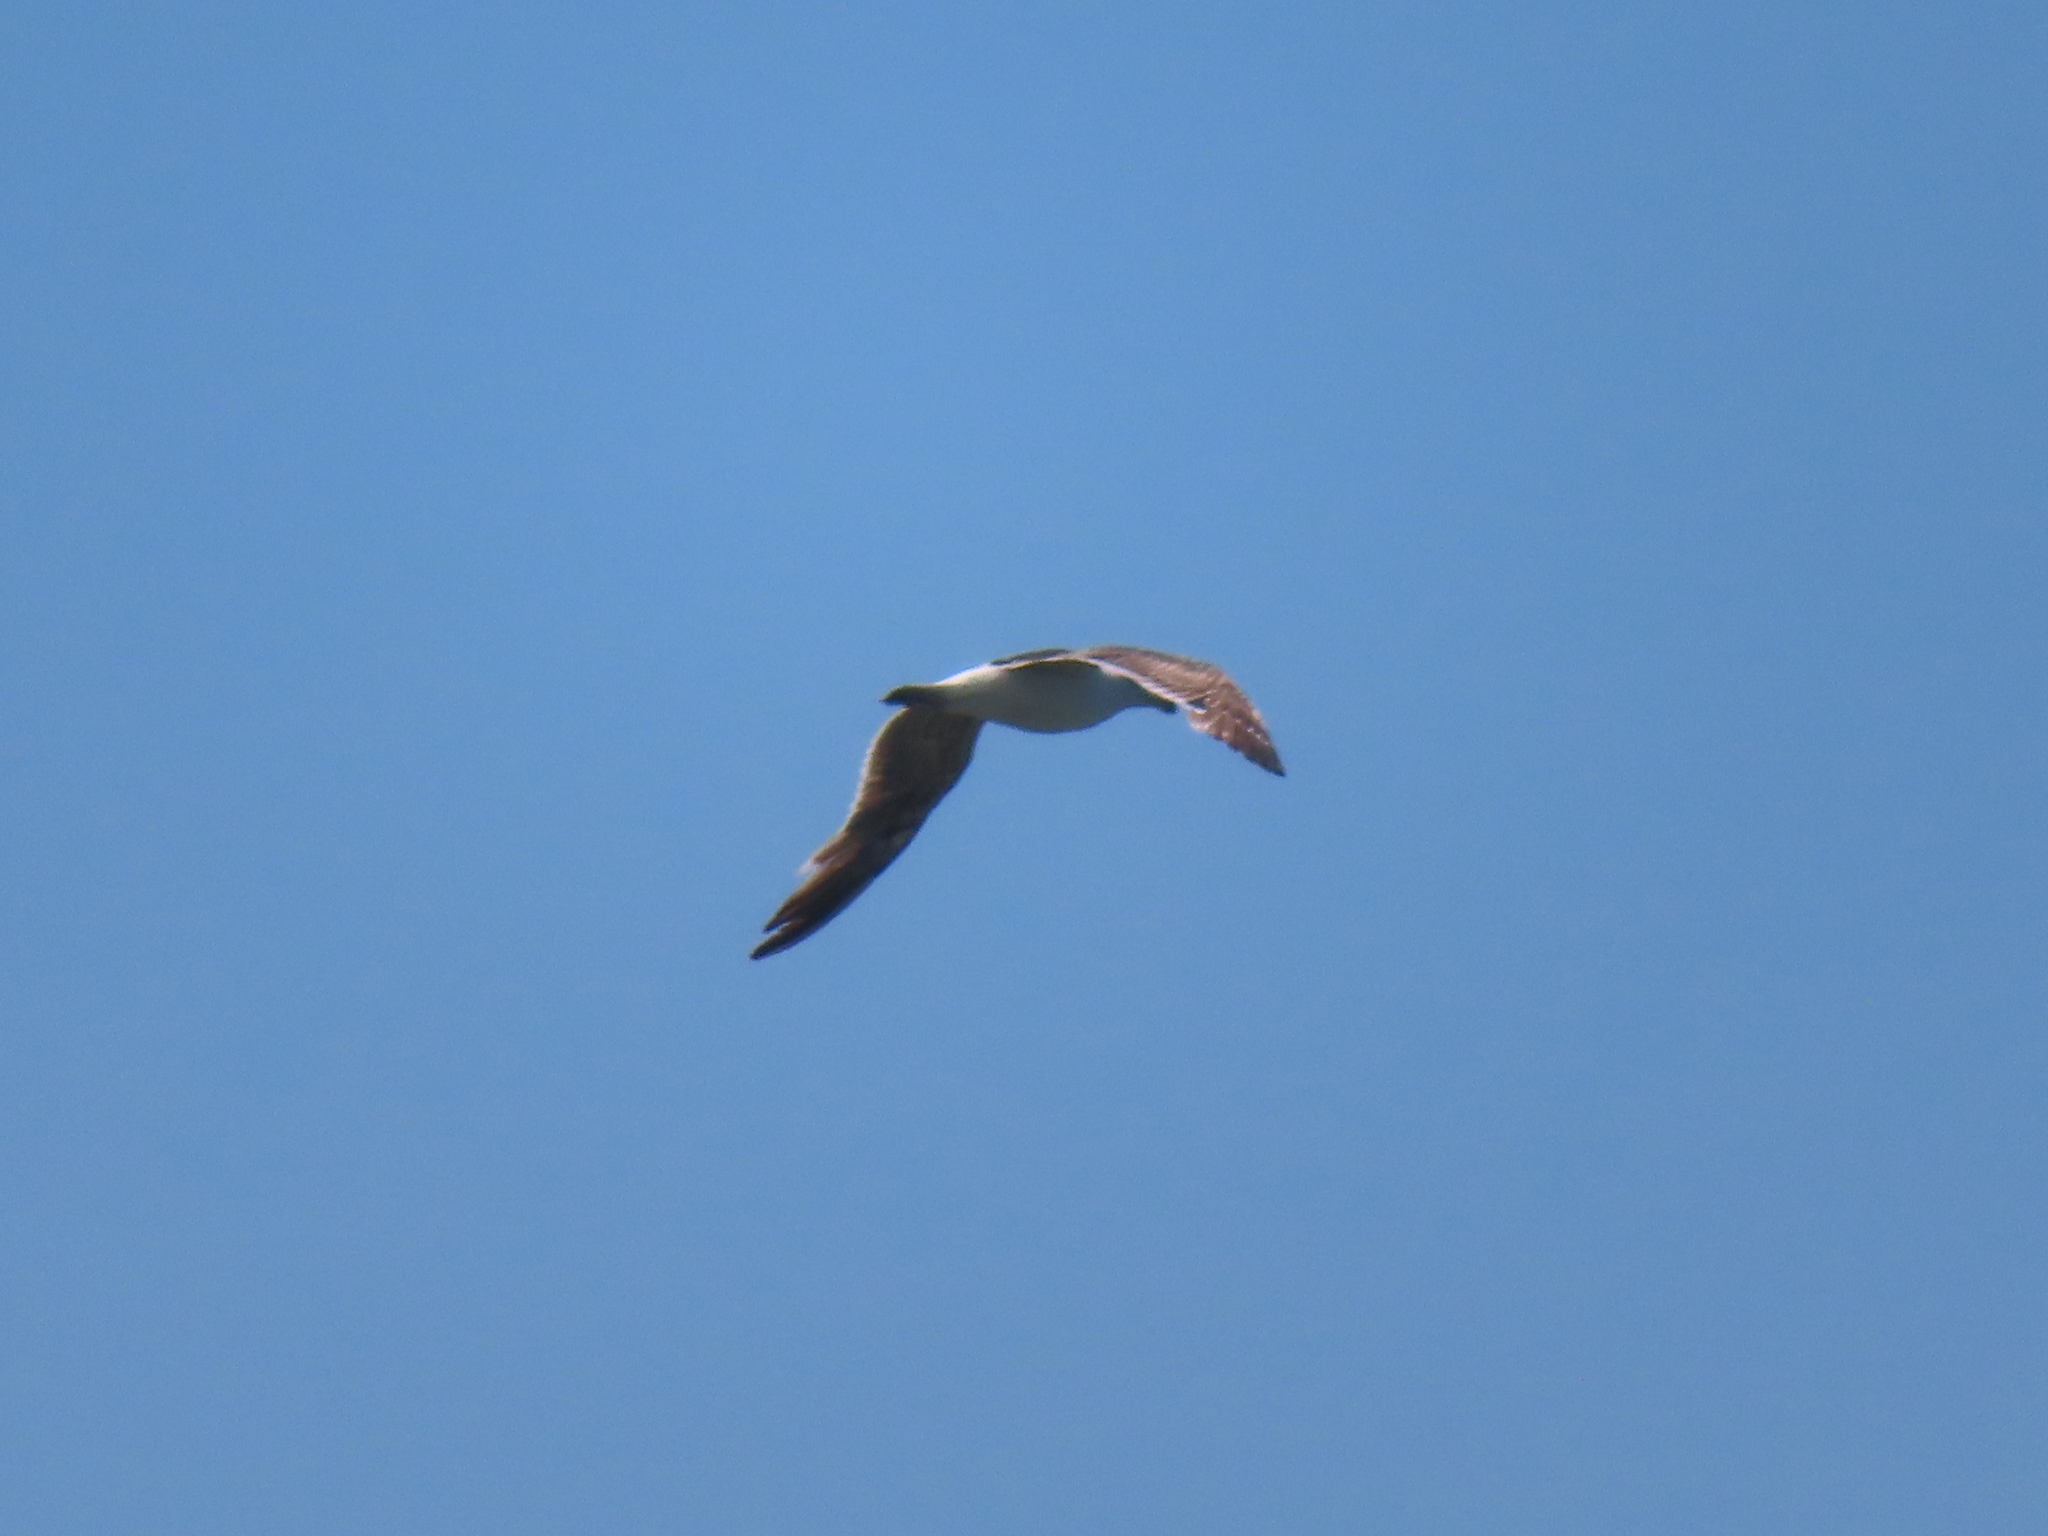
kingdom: Animalia
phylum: Chordata
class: Aves
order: Charadriiformes
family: Laridae
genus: Leucophaeus
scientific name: Leucophaeus atricilla
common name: Laughing gull
